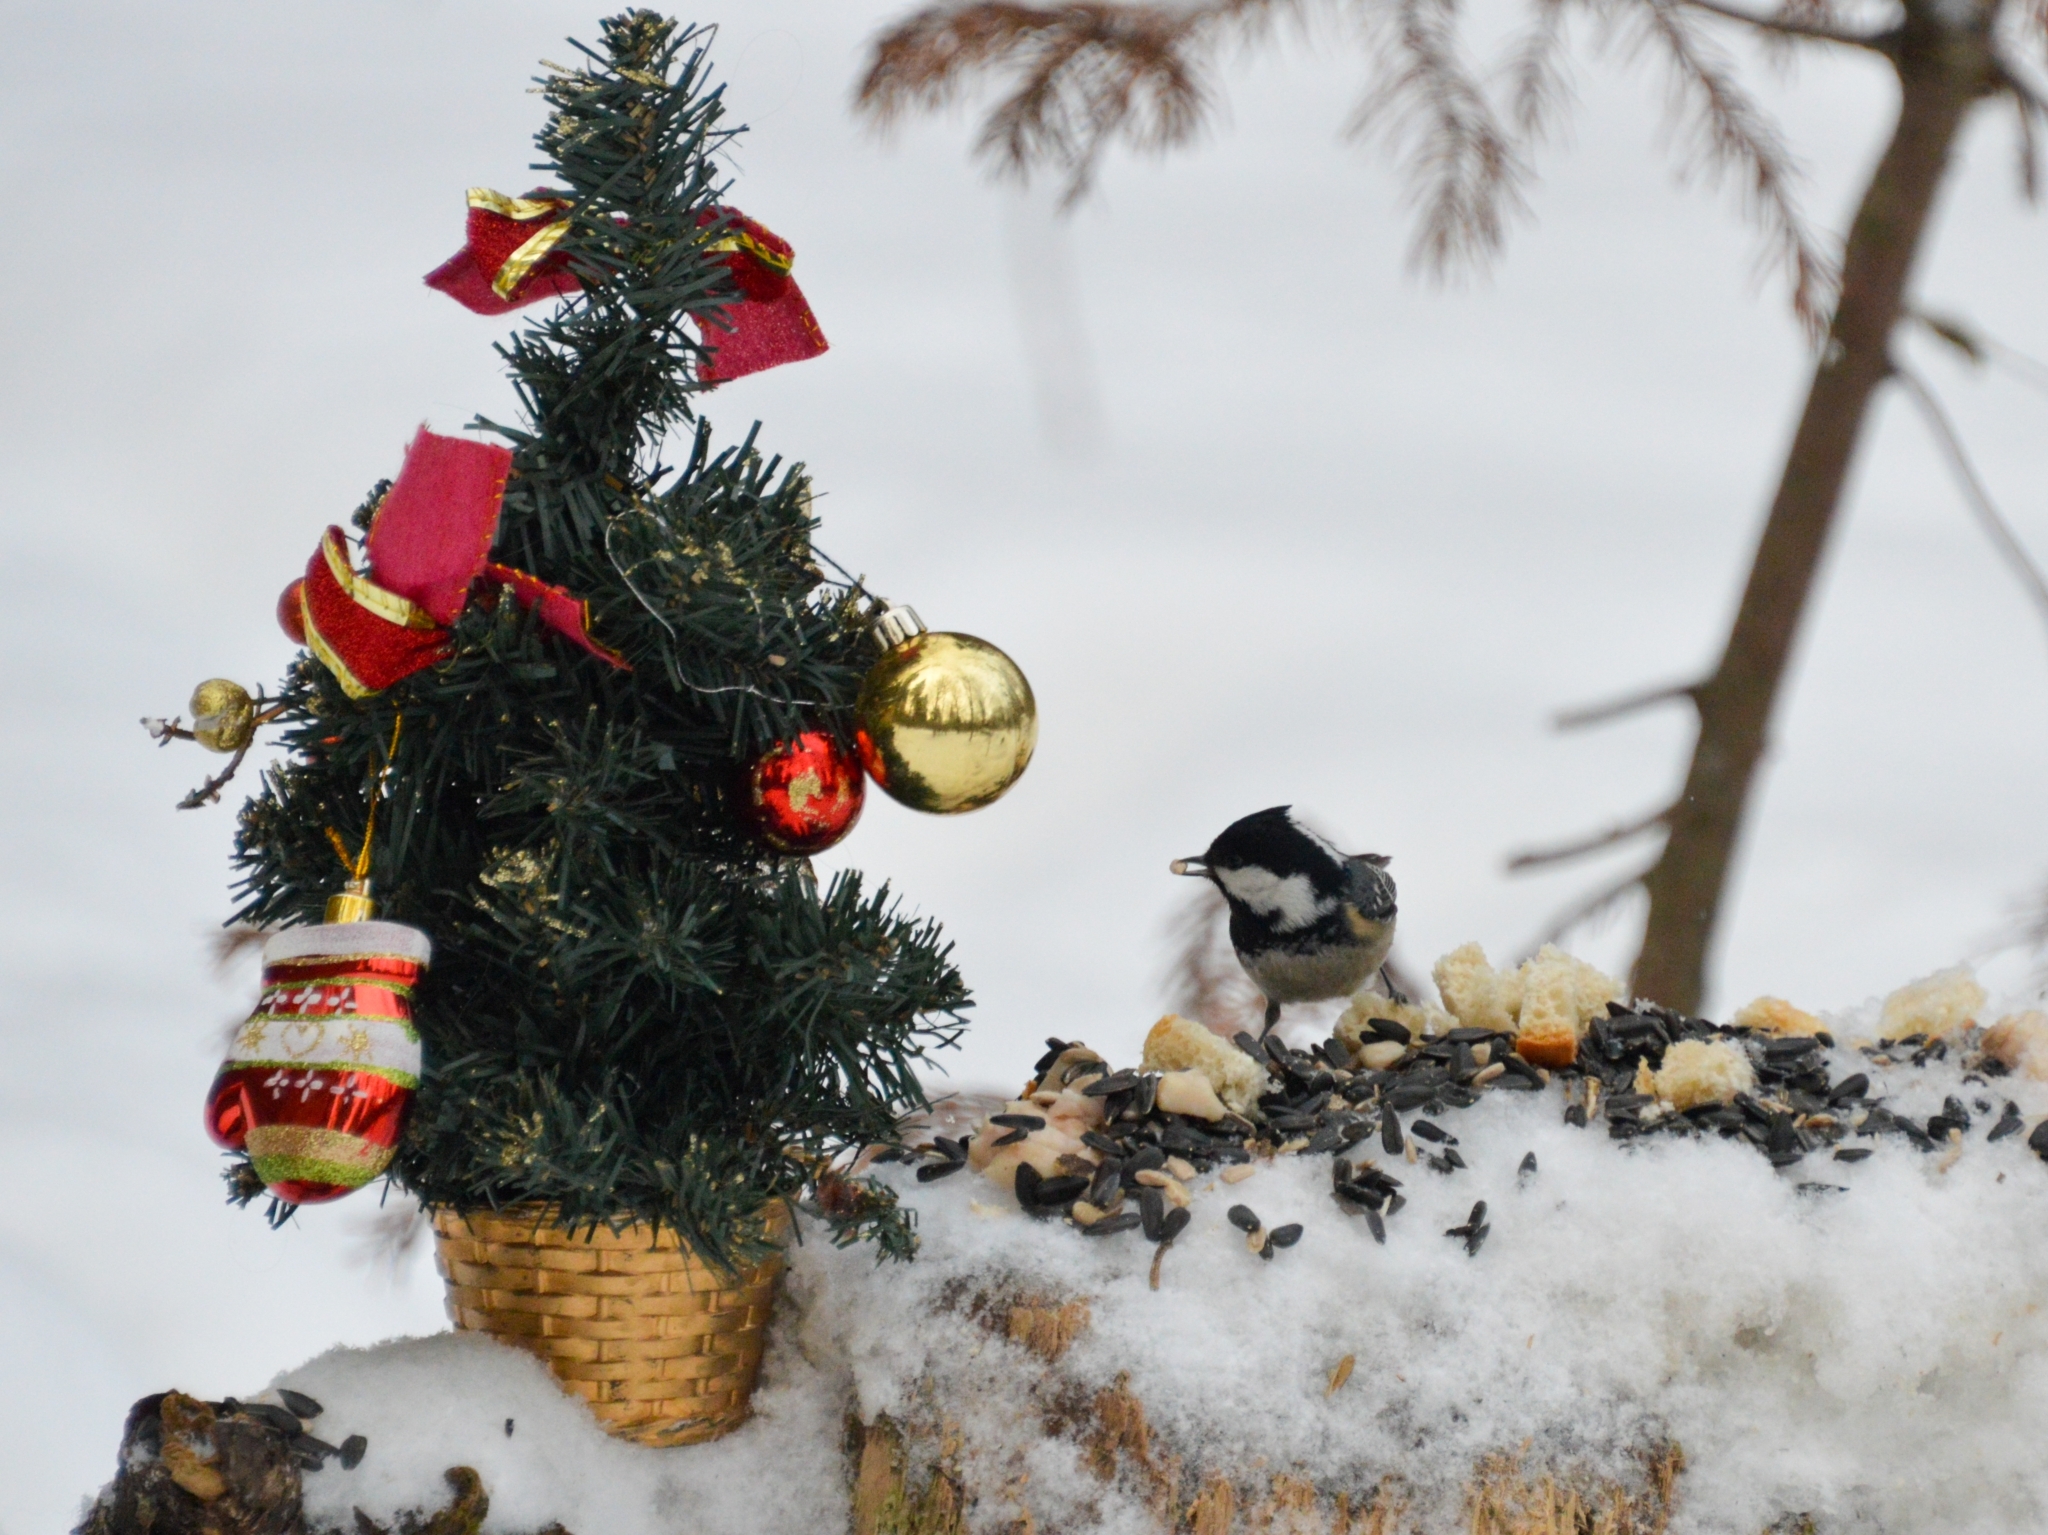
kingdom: Animalia
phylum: Chordata
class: Aves
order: Passeriformes
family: Paridae
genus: Periparus
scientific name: Periparus ater
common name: Coal tit
